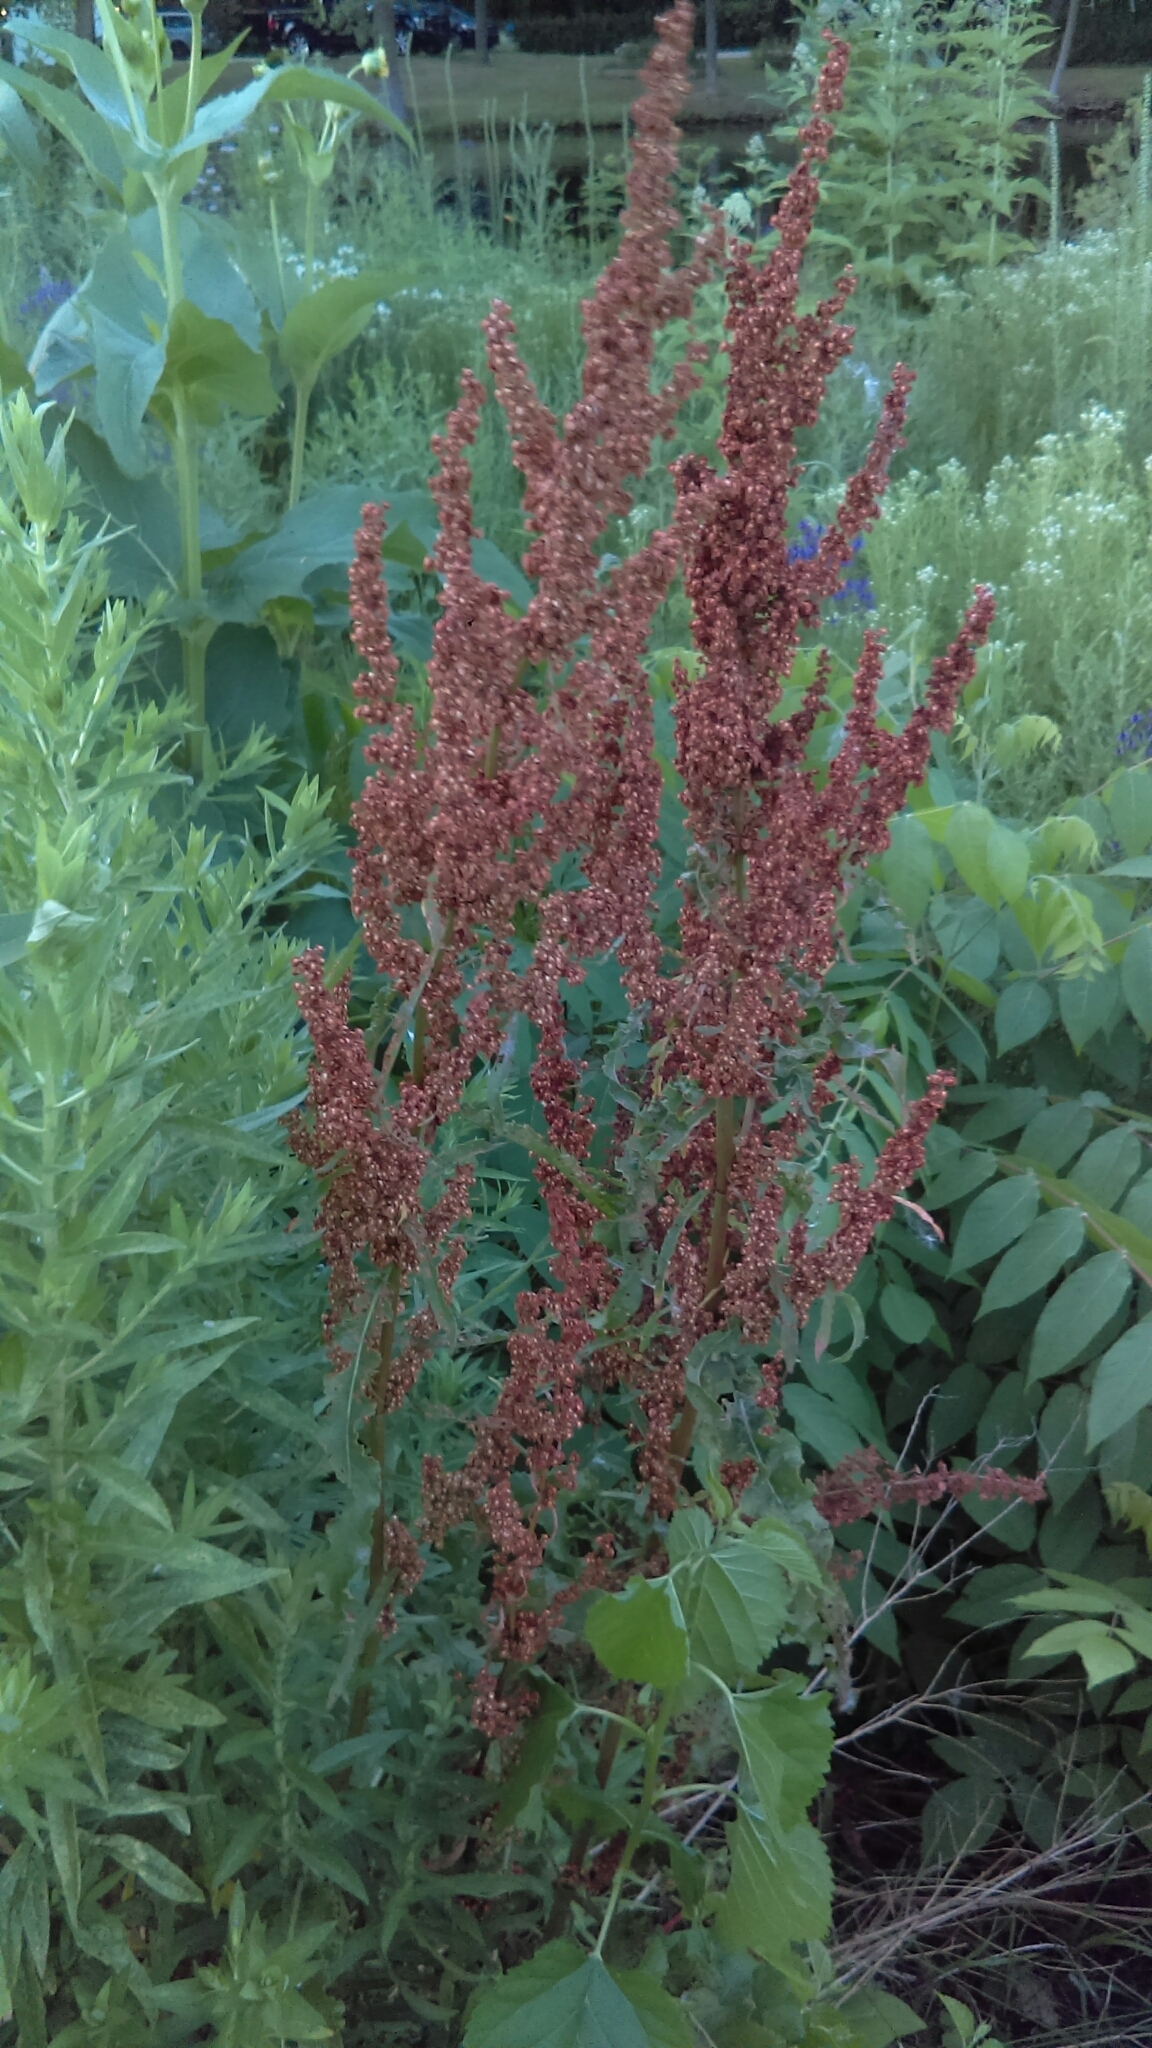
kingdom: Plantae
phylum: Tracheophyta
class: Magnoliopsida
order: Caryophyllales
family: Polygonaceae
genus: Rumex
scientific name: Rumex crispus
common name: Curled dock
